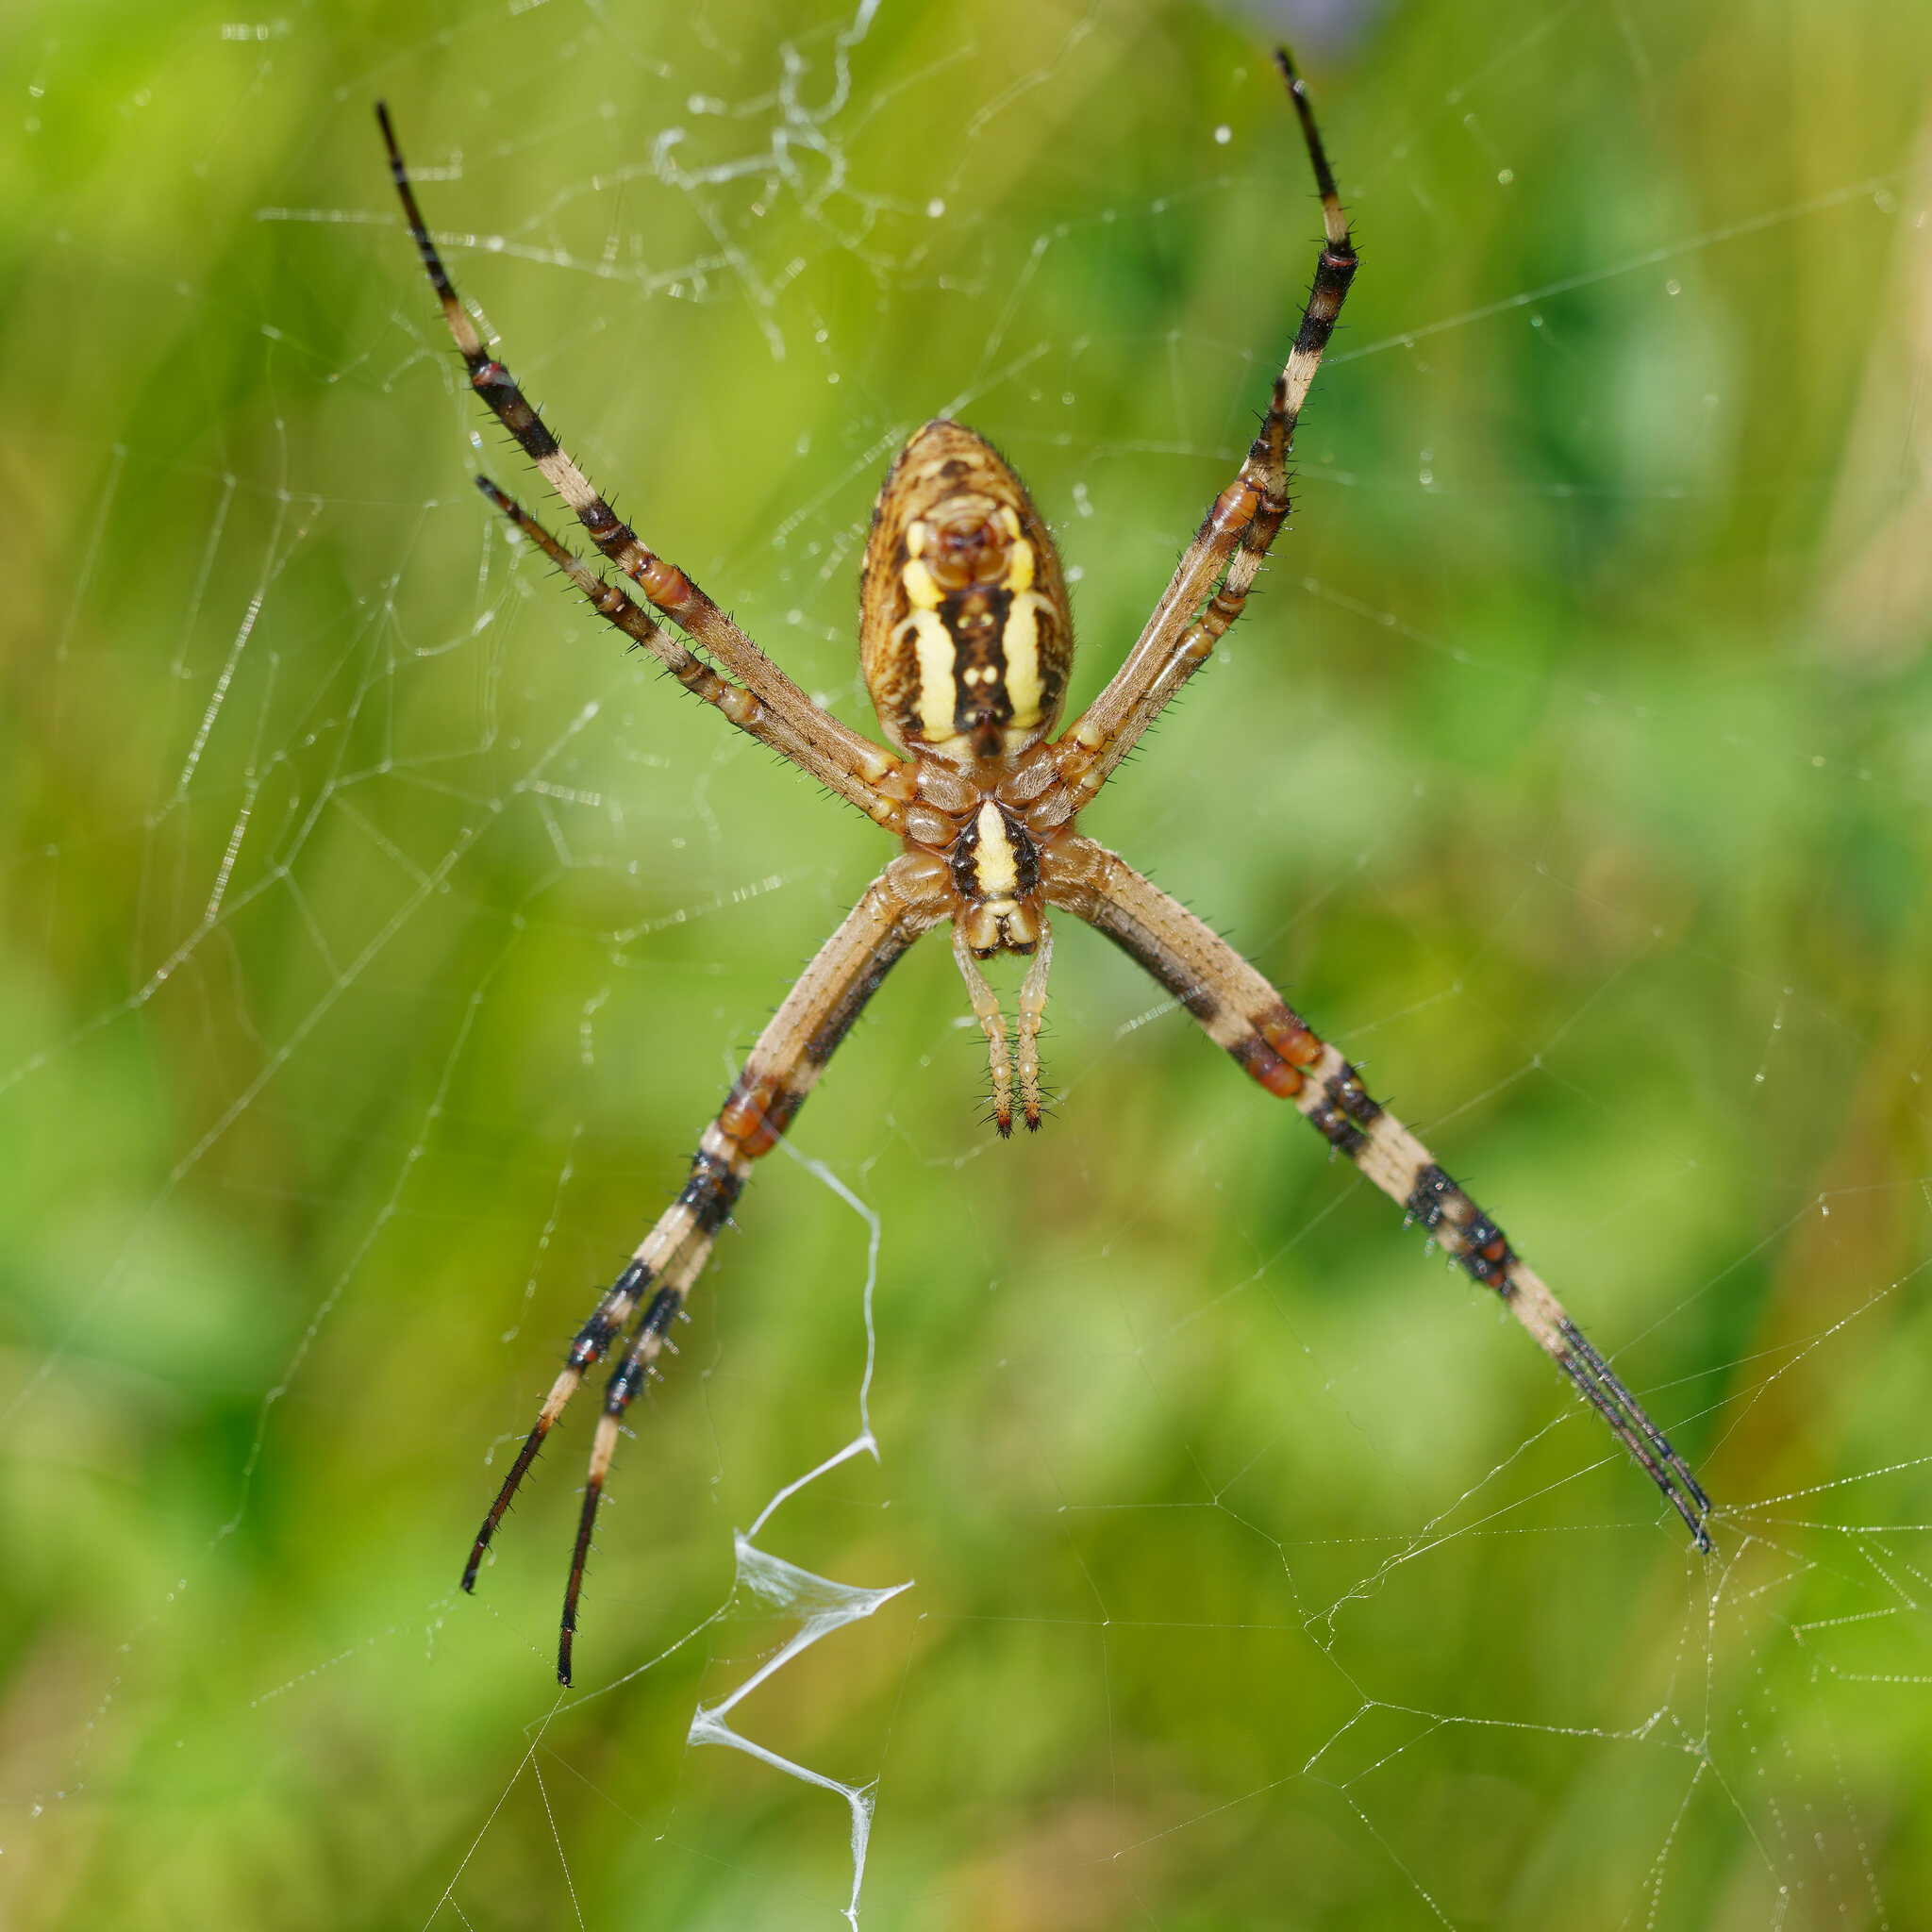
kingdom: Animalia
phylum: Arthropoda
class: Arachnida
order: Araneae
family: Araneidae
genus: Argiope
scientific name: Argiope bruennichi
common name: Wasp spider
